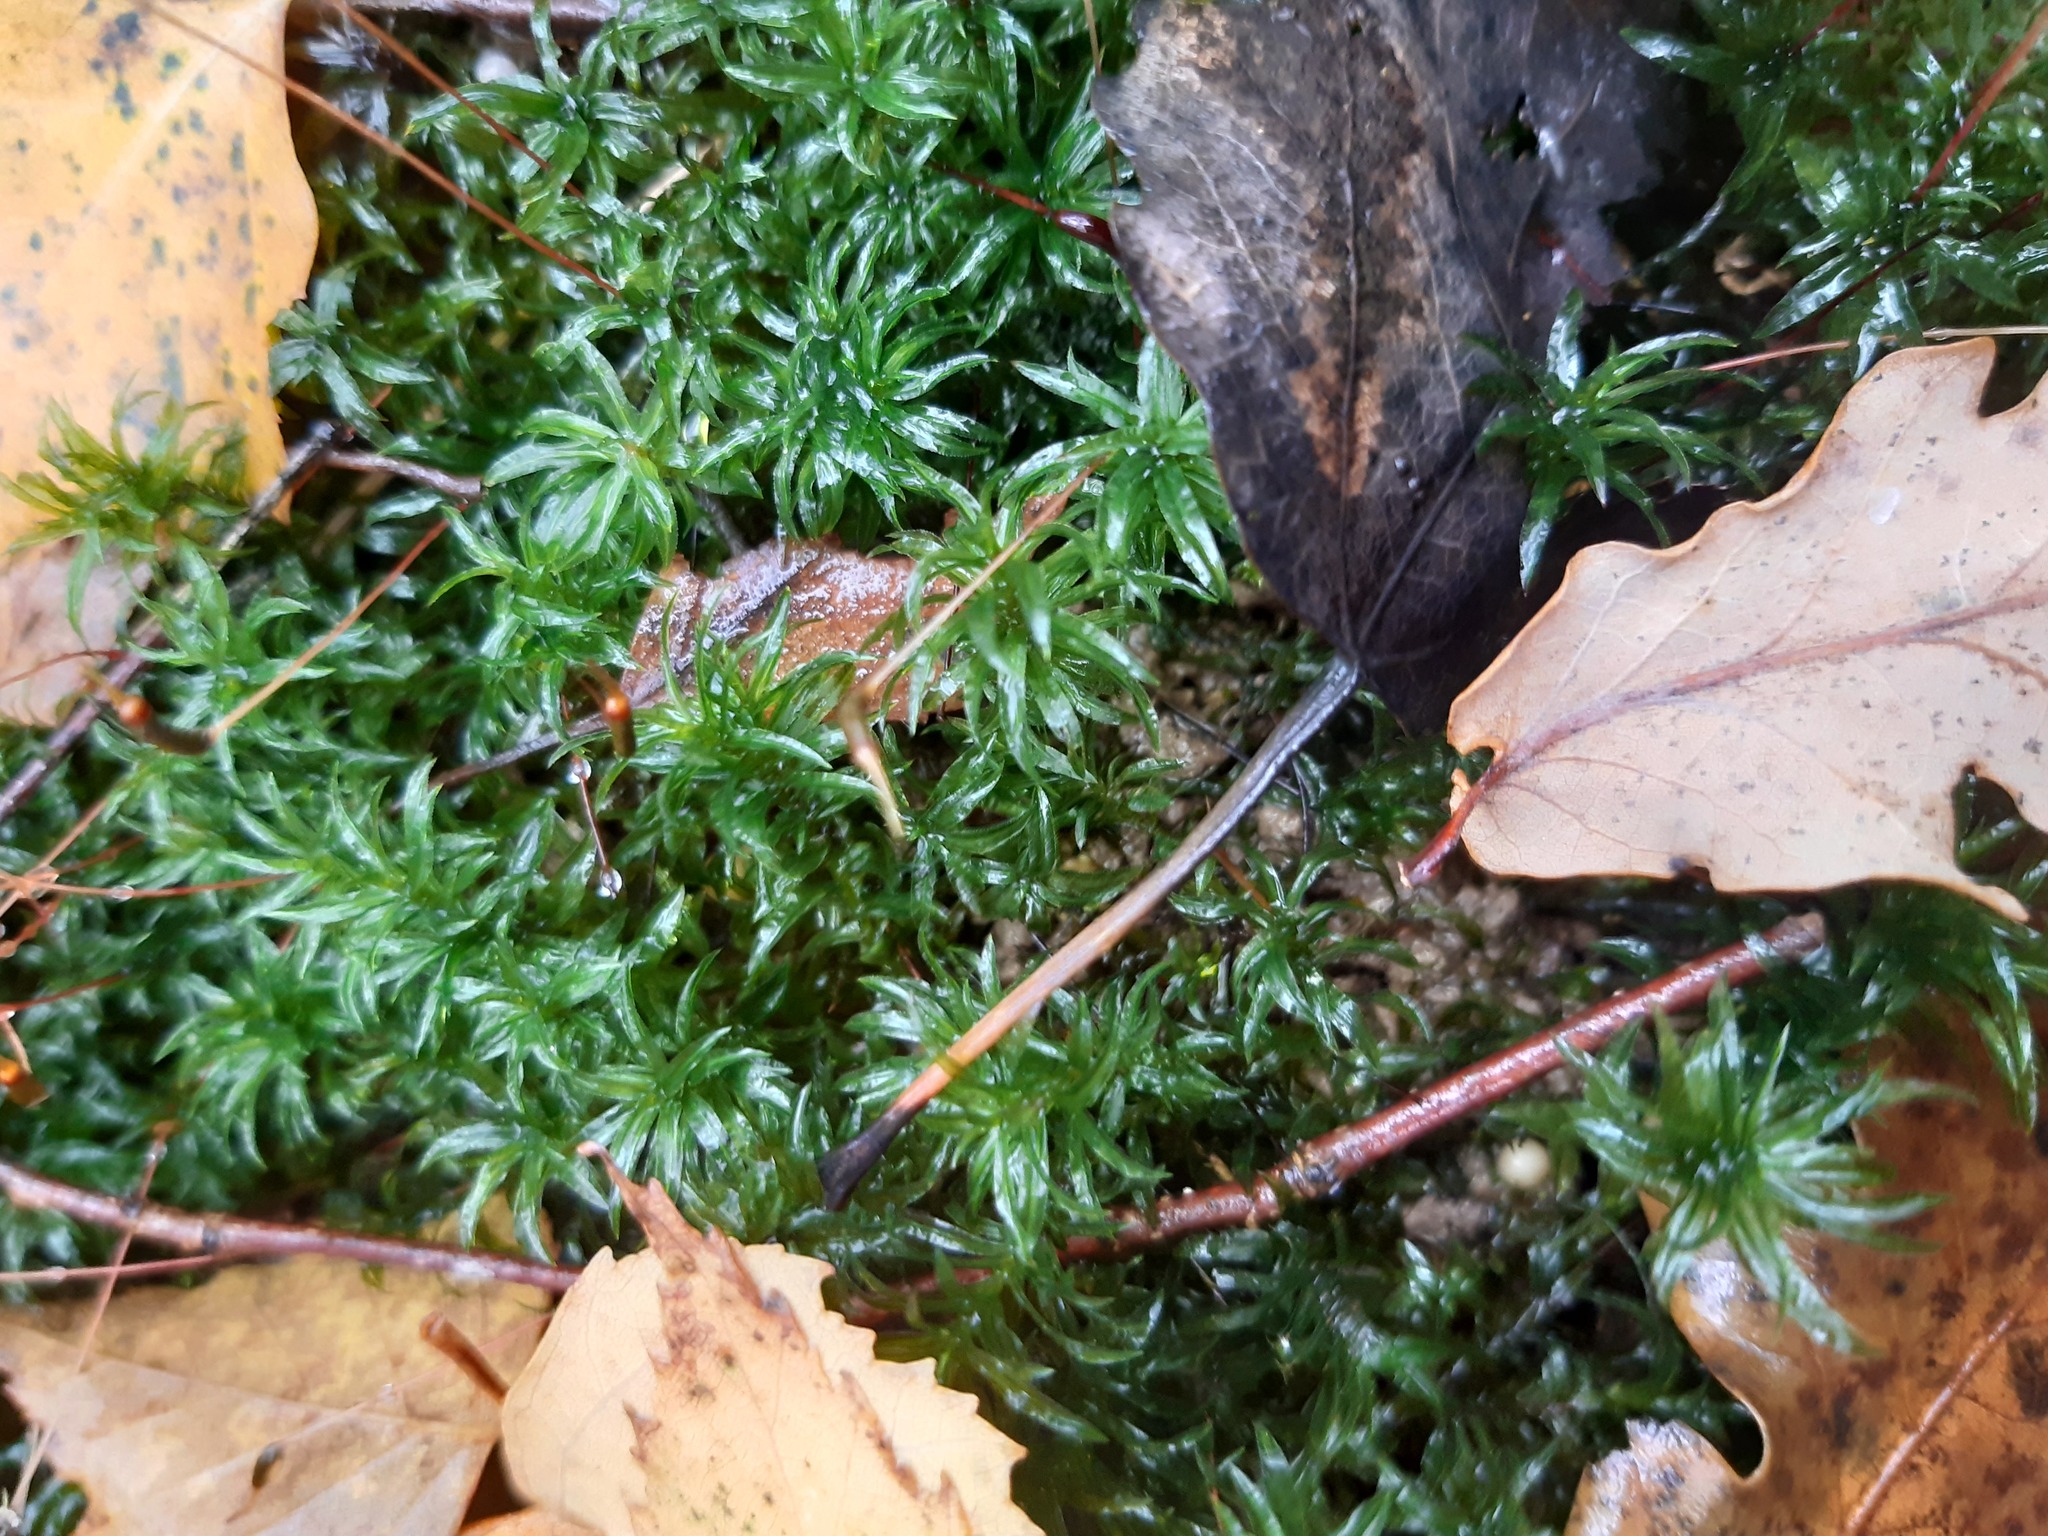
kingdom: Plantae
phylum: Bryophyta
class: Polytrichopsida
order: Polytrichales
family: Polytrichaceae
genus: Atrichum
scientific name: Atrichum undulatum
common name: Common smoothcap
